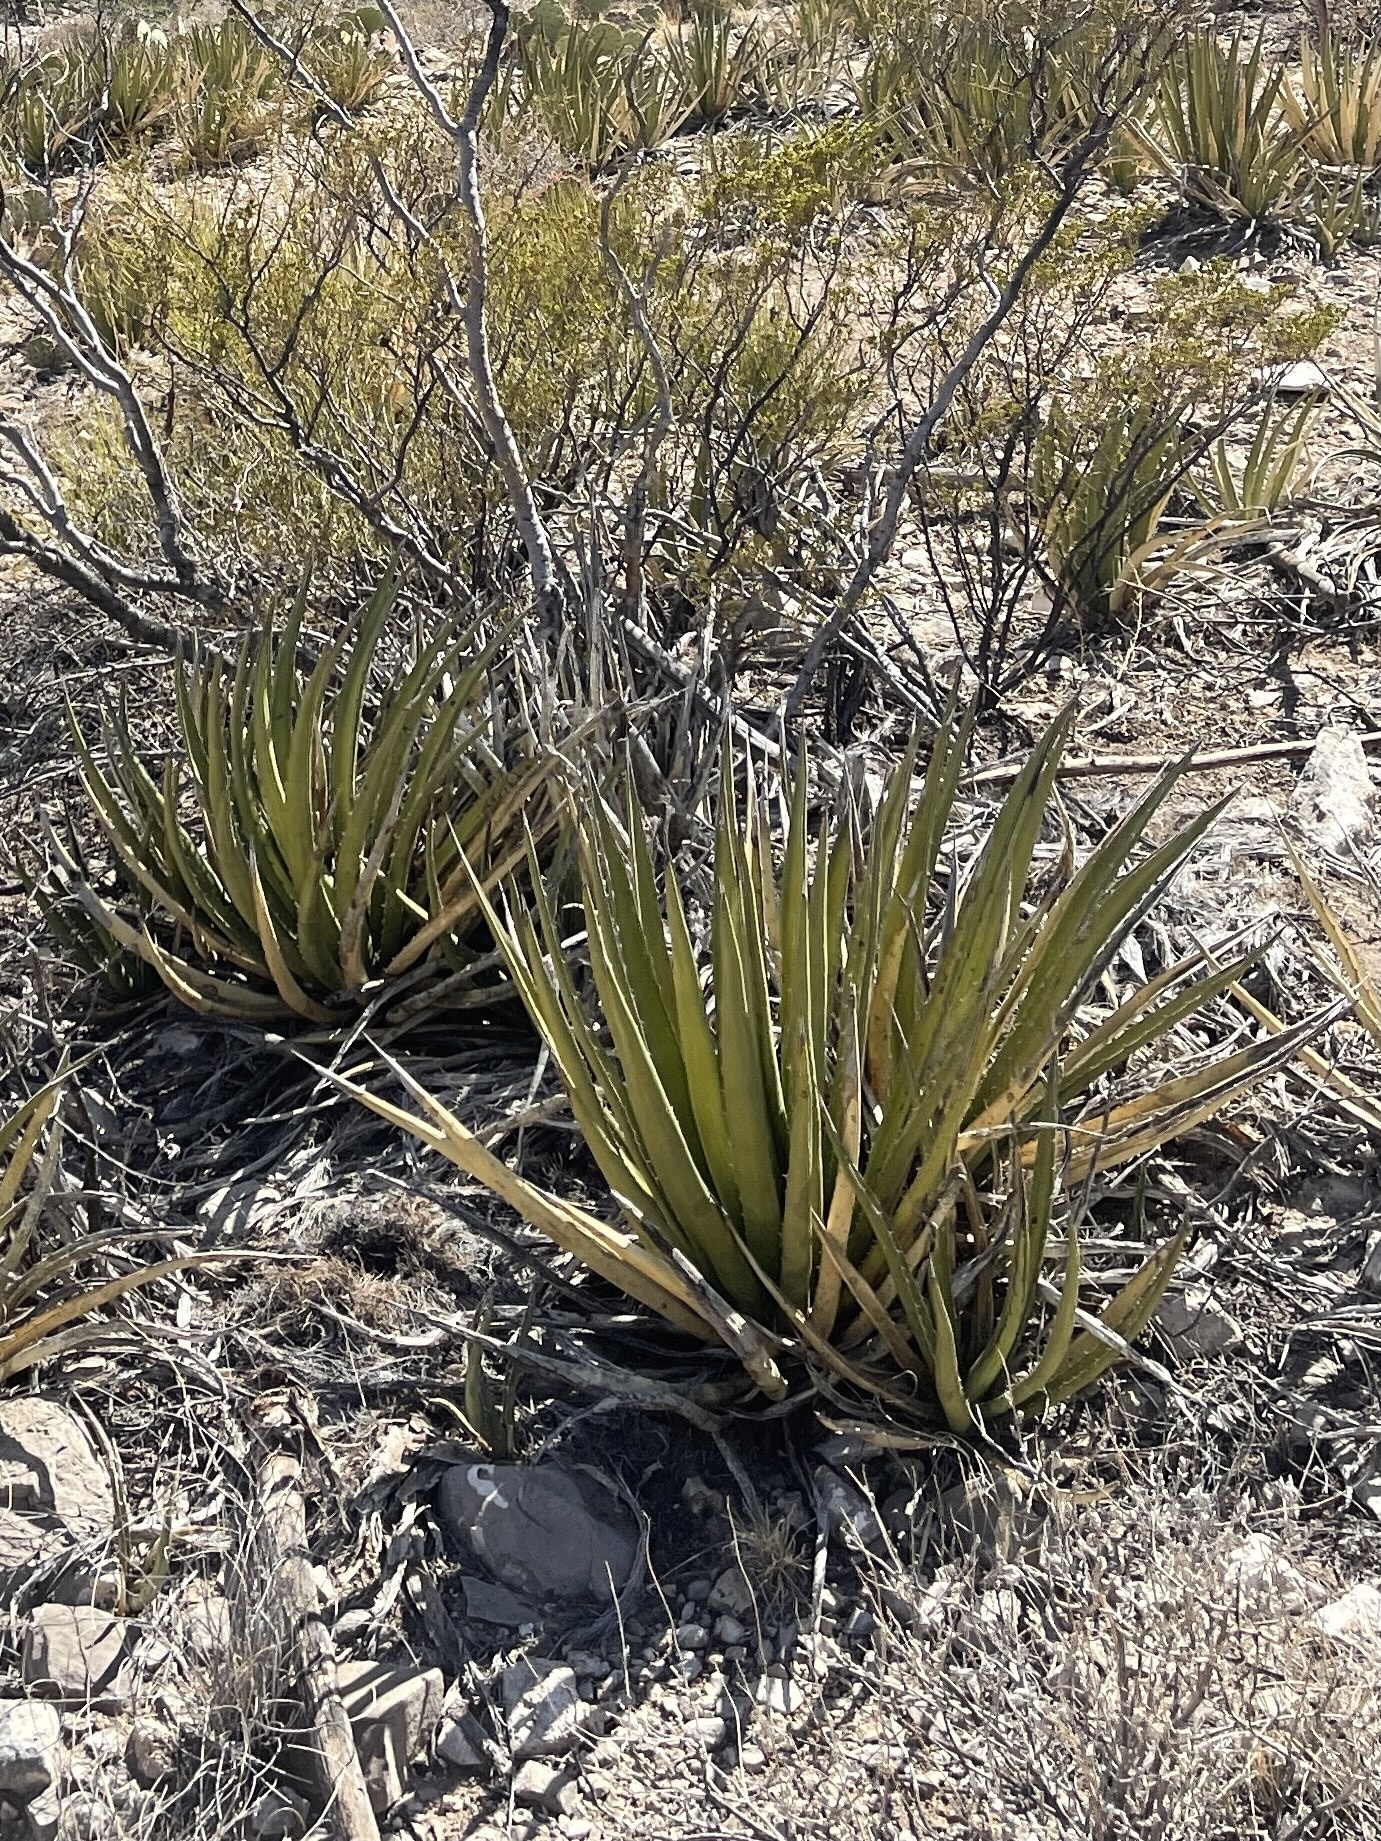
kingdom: Plantae
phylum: Tracheophyta
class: Liliopsida
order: Asparagales
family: Asparagaceae
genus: Agave
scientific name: Agave lechuguilla
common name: Lecheguilla agave
